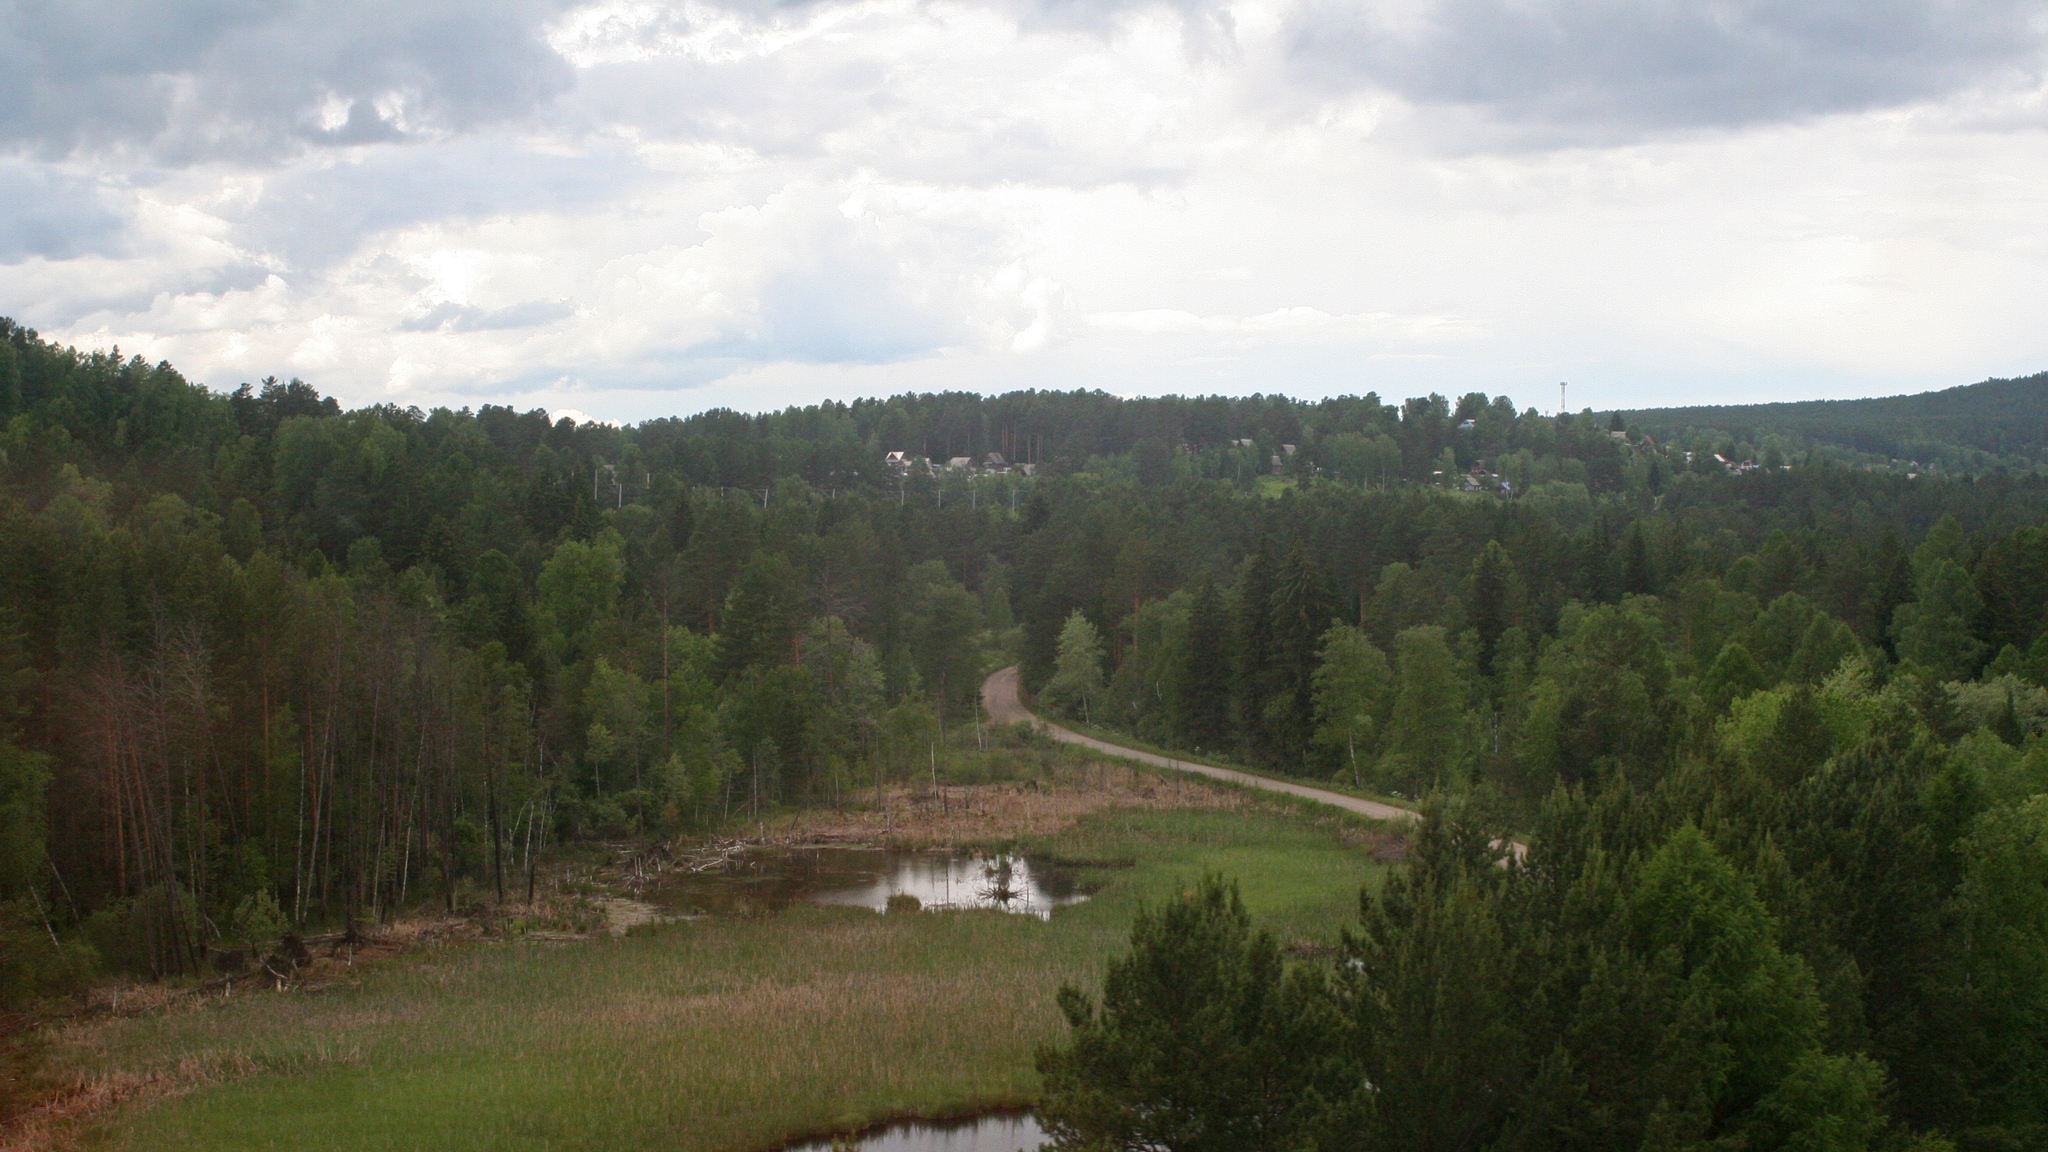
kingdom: Plantae
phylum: Tracheophyta
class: Pinopsida
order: Pinales
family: Pinaceae
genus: Pinus
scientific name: Pinus sylvestris
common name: Scots pine
